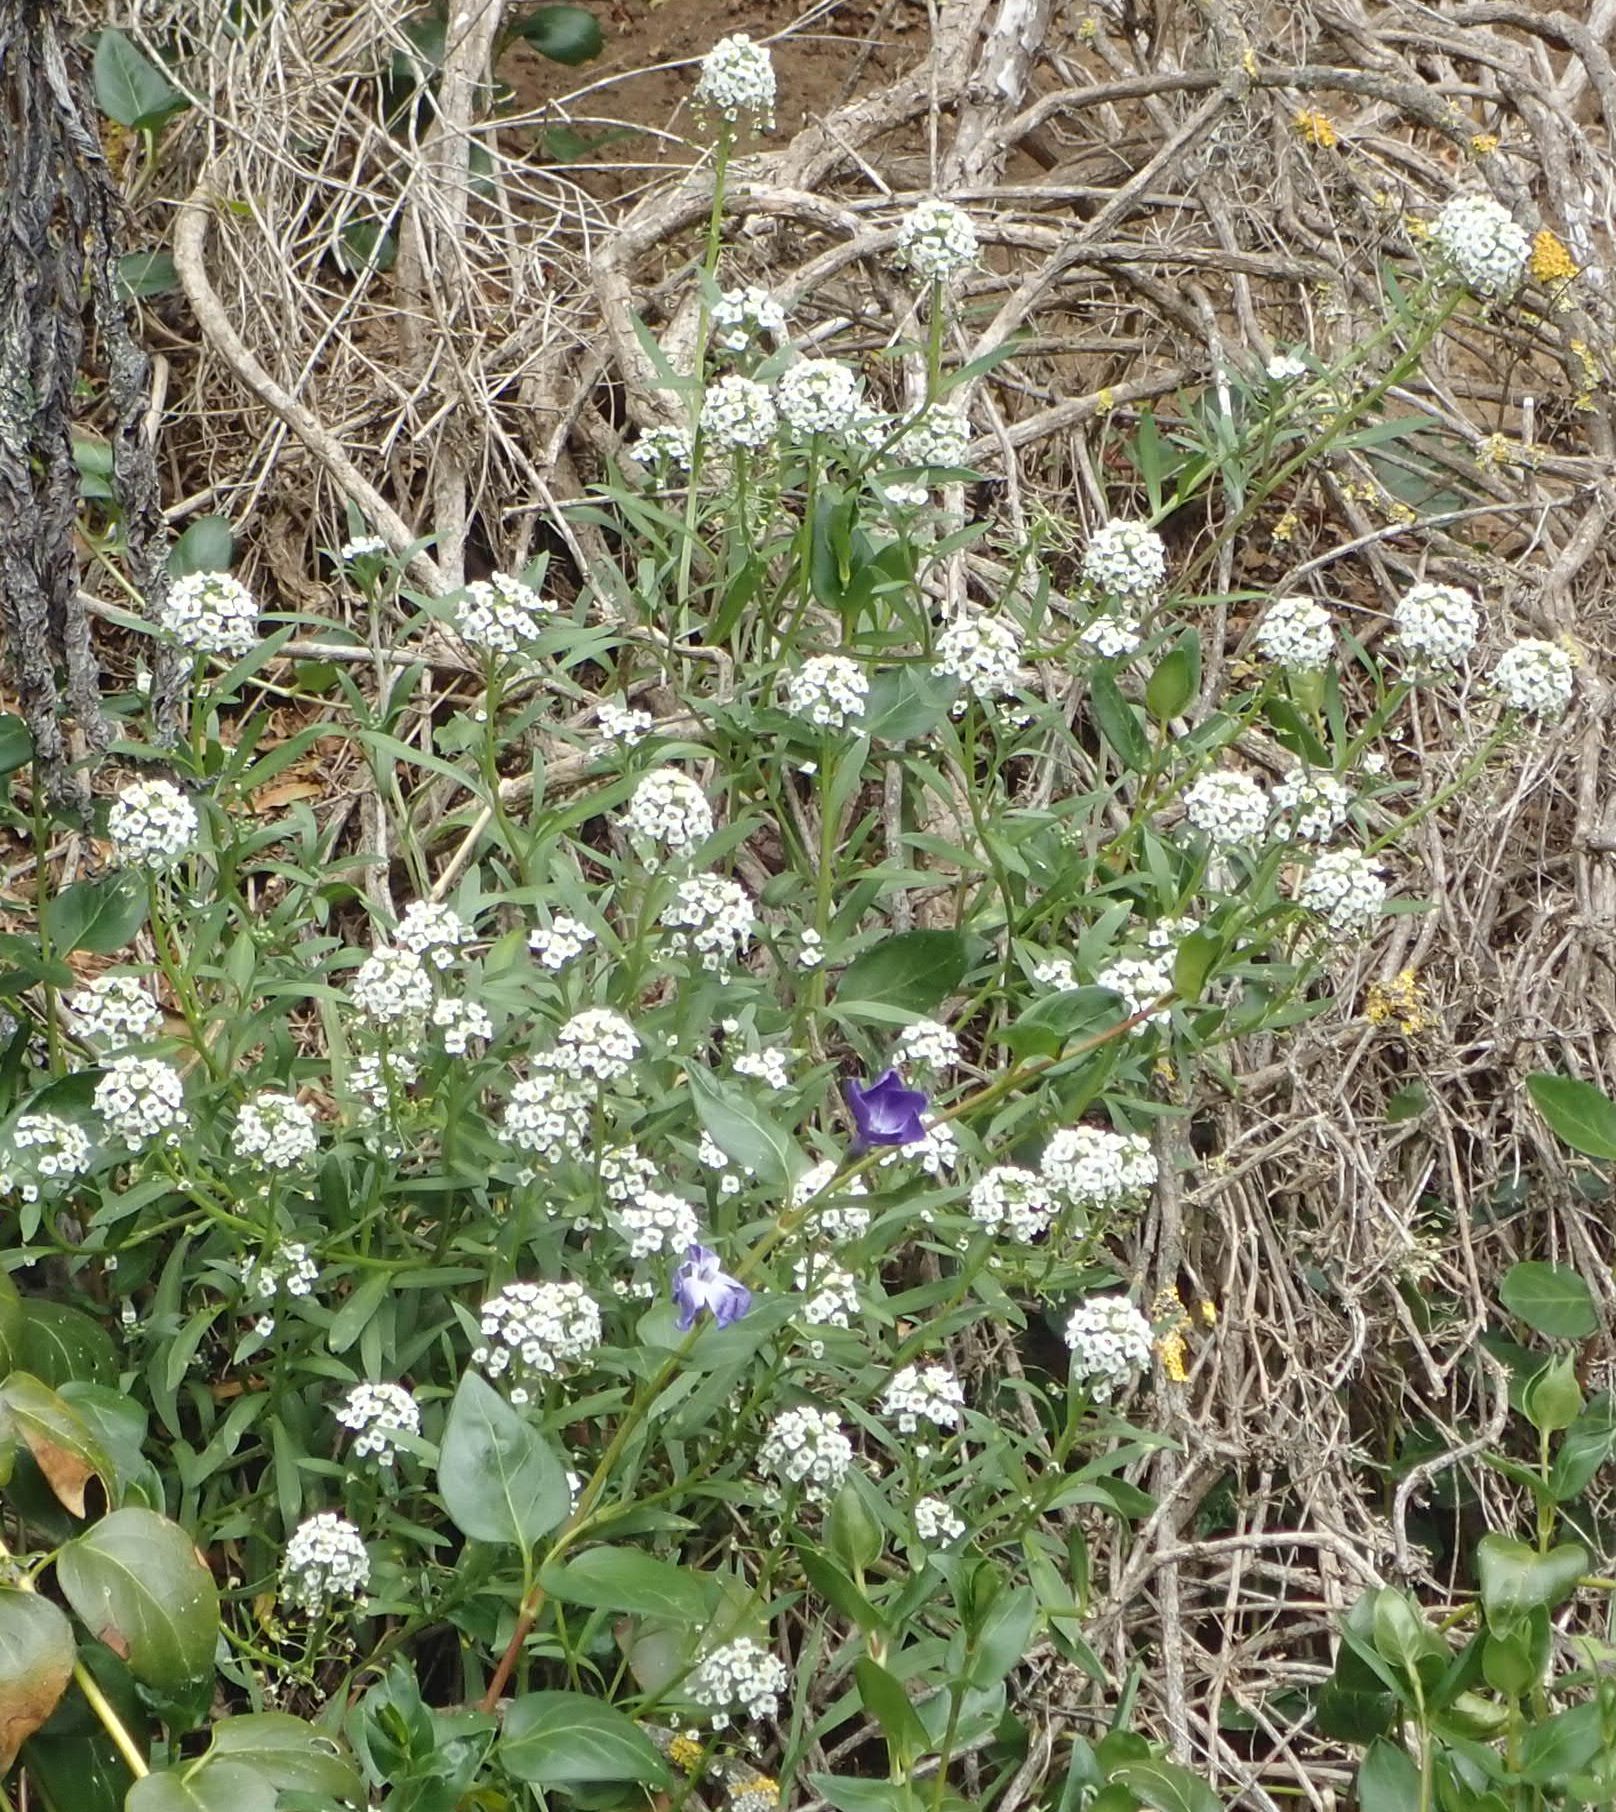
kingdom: Plantae
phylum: Tracheophyta
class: Magnoliopsida
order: Brassicales
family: Brassicaceae
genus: Lobularia
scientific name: Lobularia maritima
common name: Sweet alison
